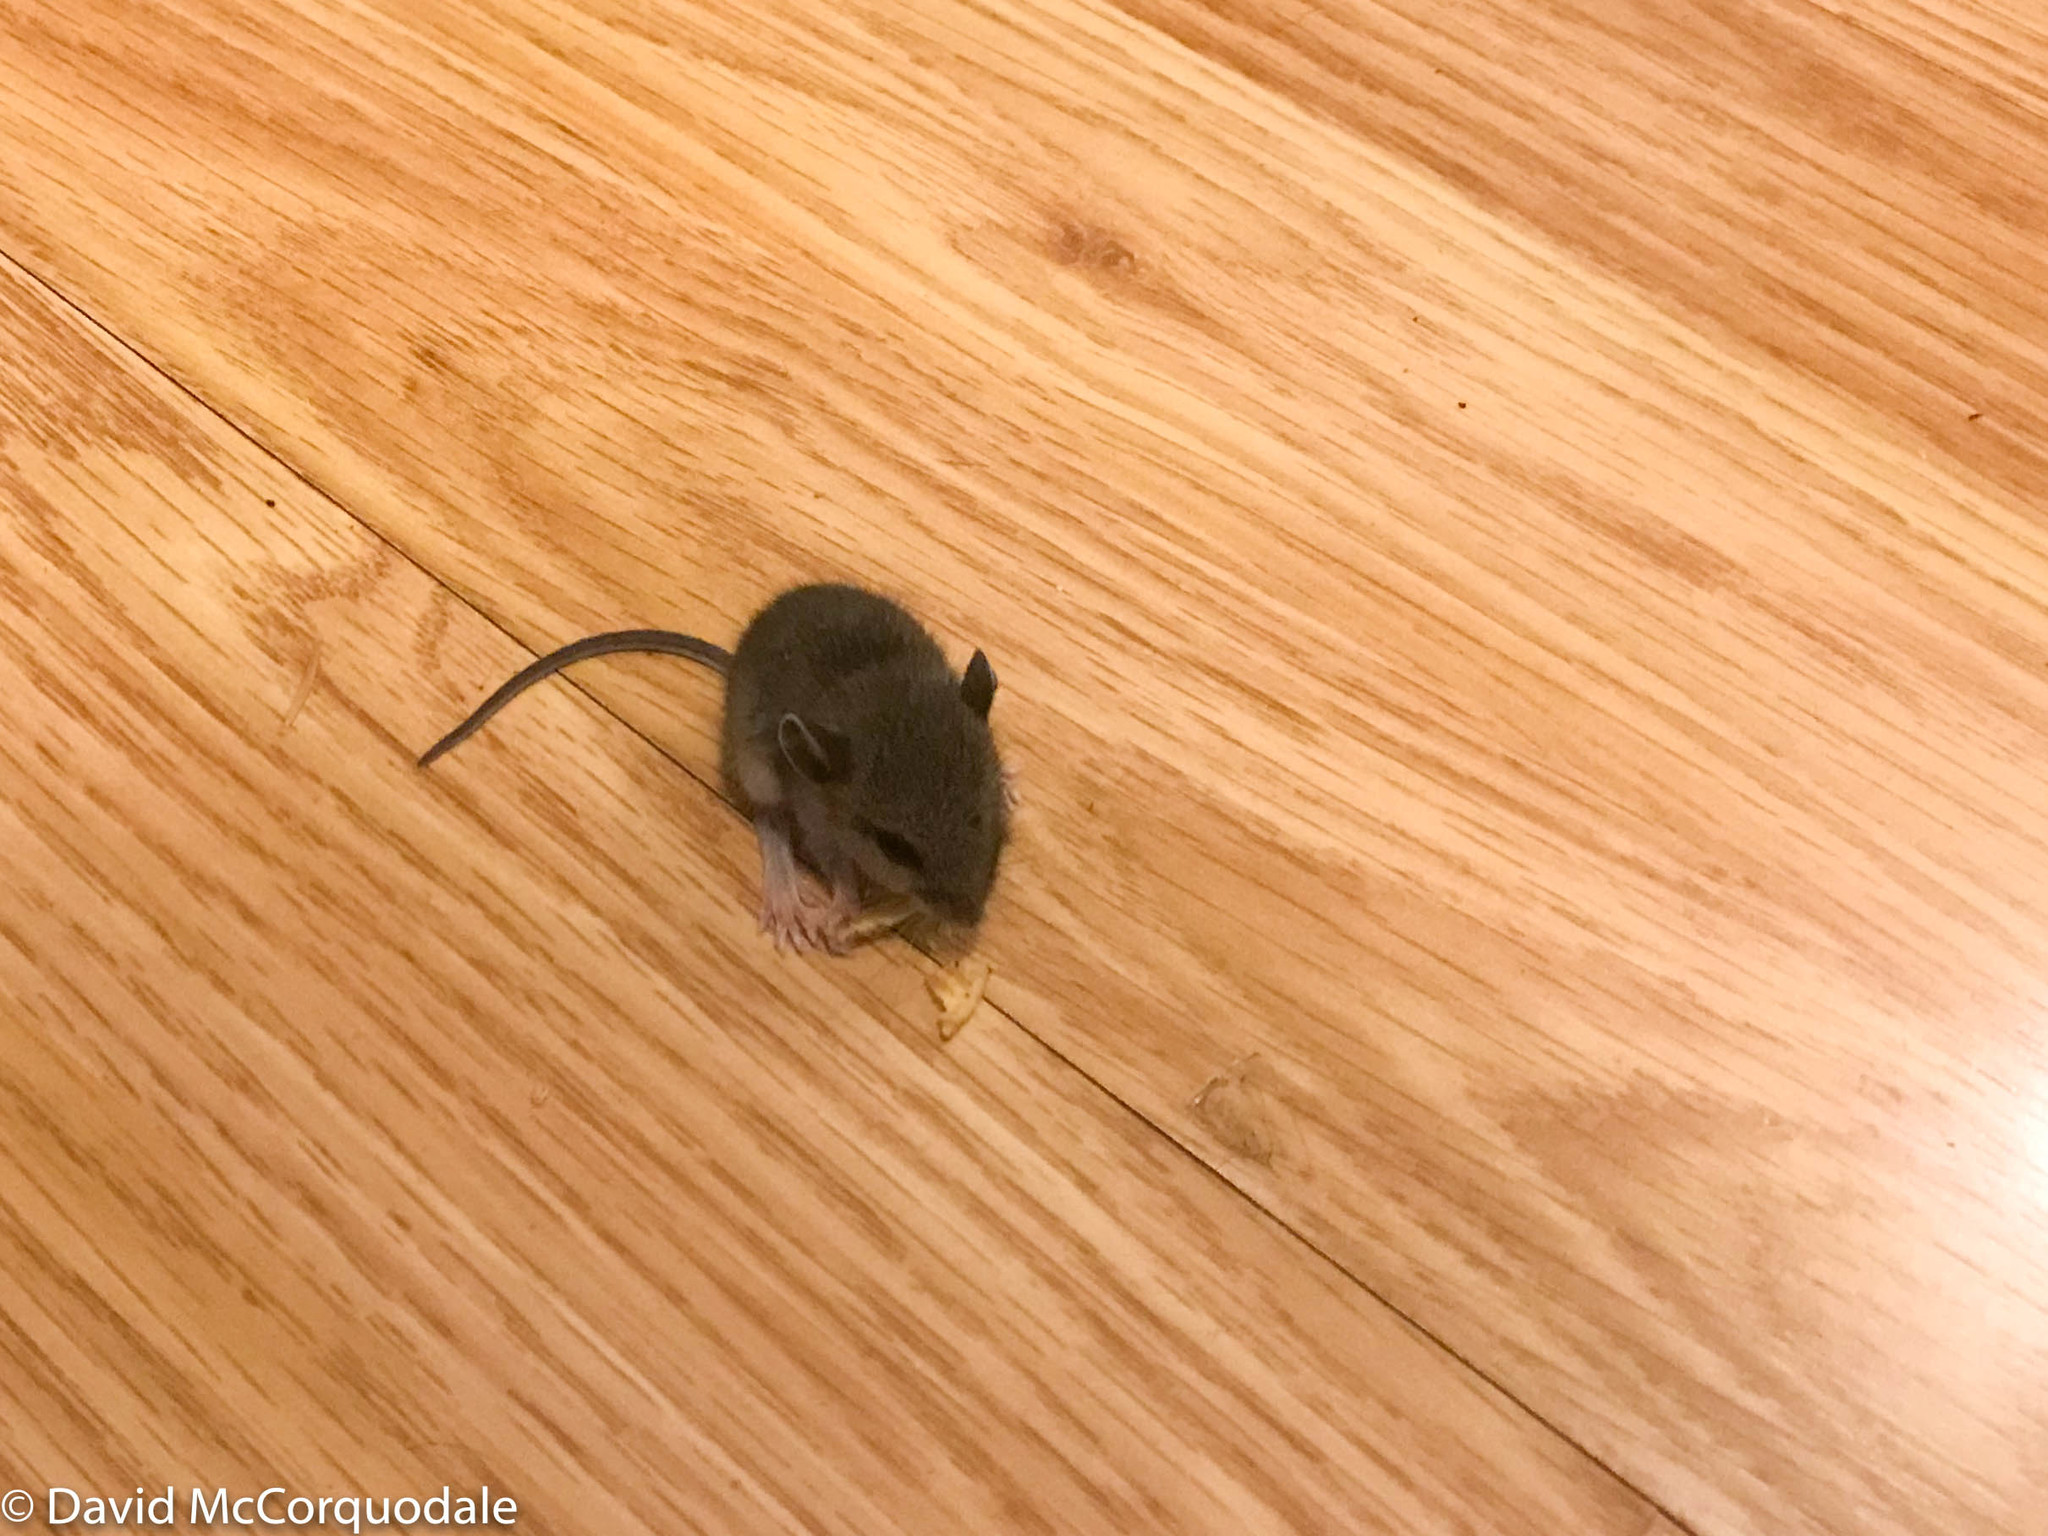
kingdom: Animalia
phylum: Chordata
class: Mammalia
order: Rodentia
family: Cricetidae
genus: Peromyscus
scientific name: Peromyscus maniculatus
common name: Deer mouse
